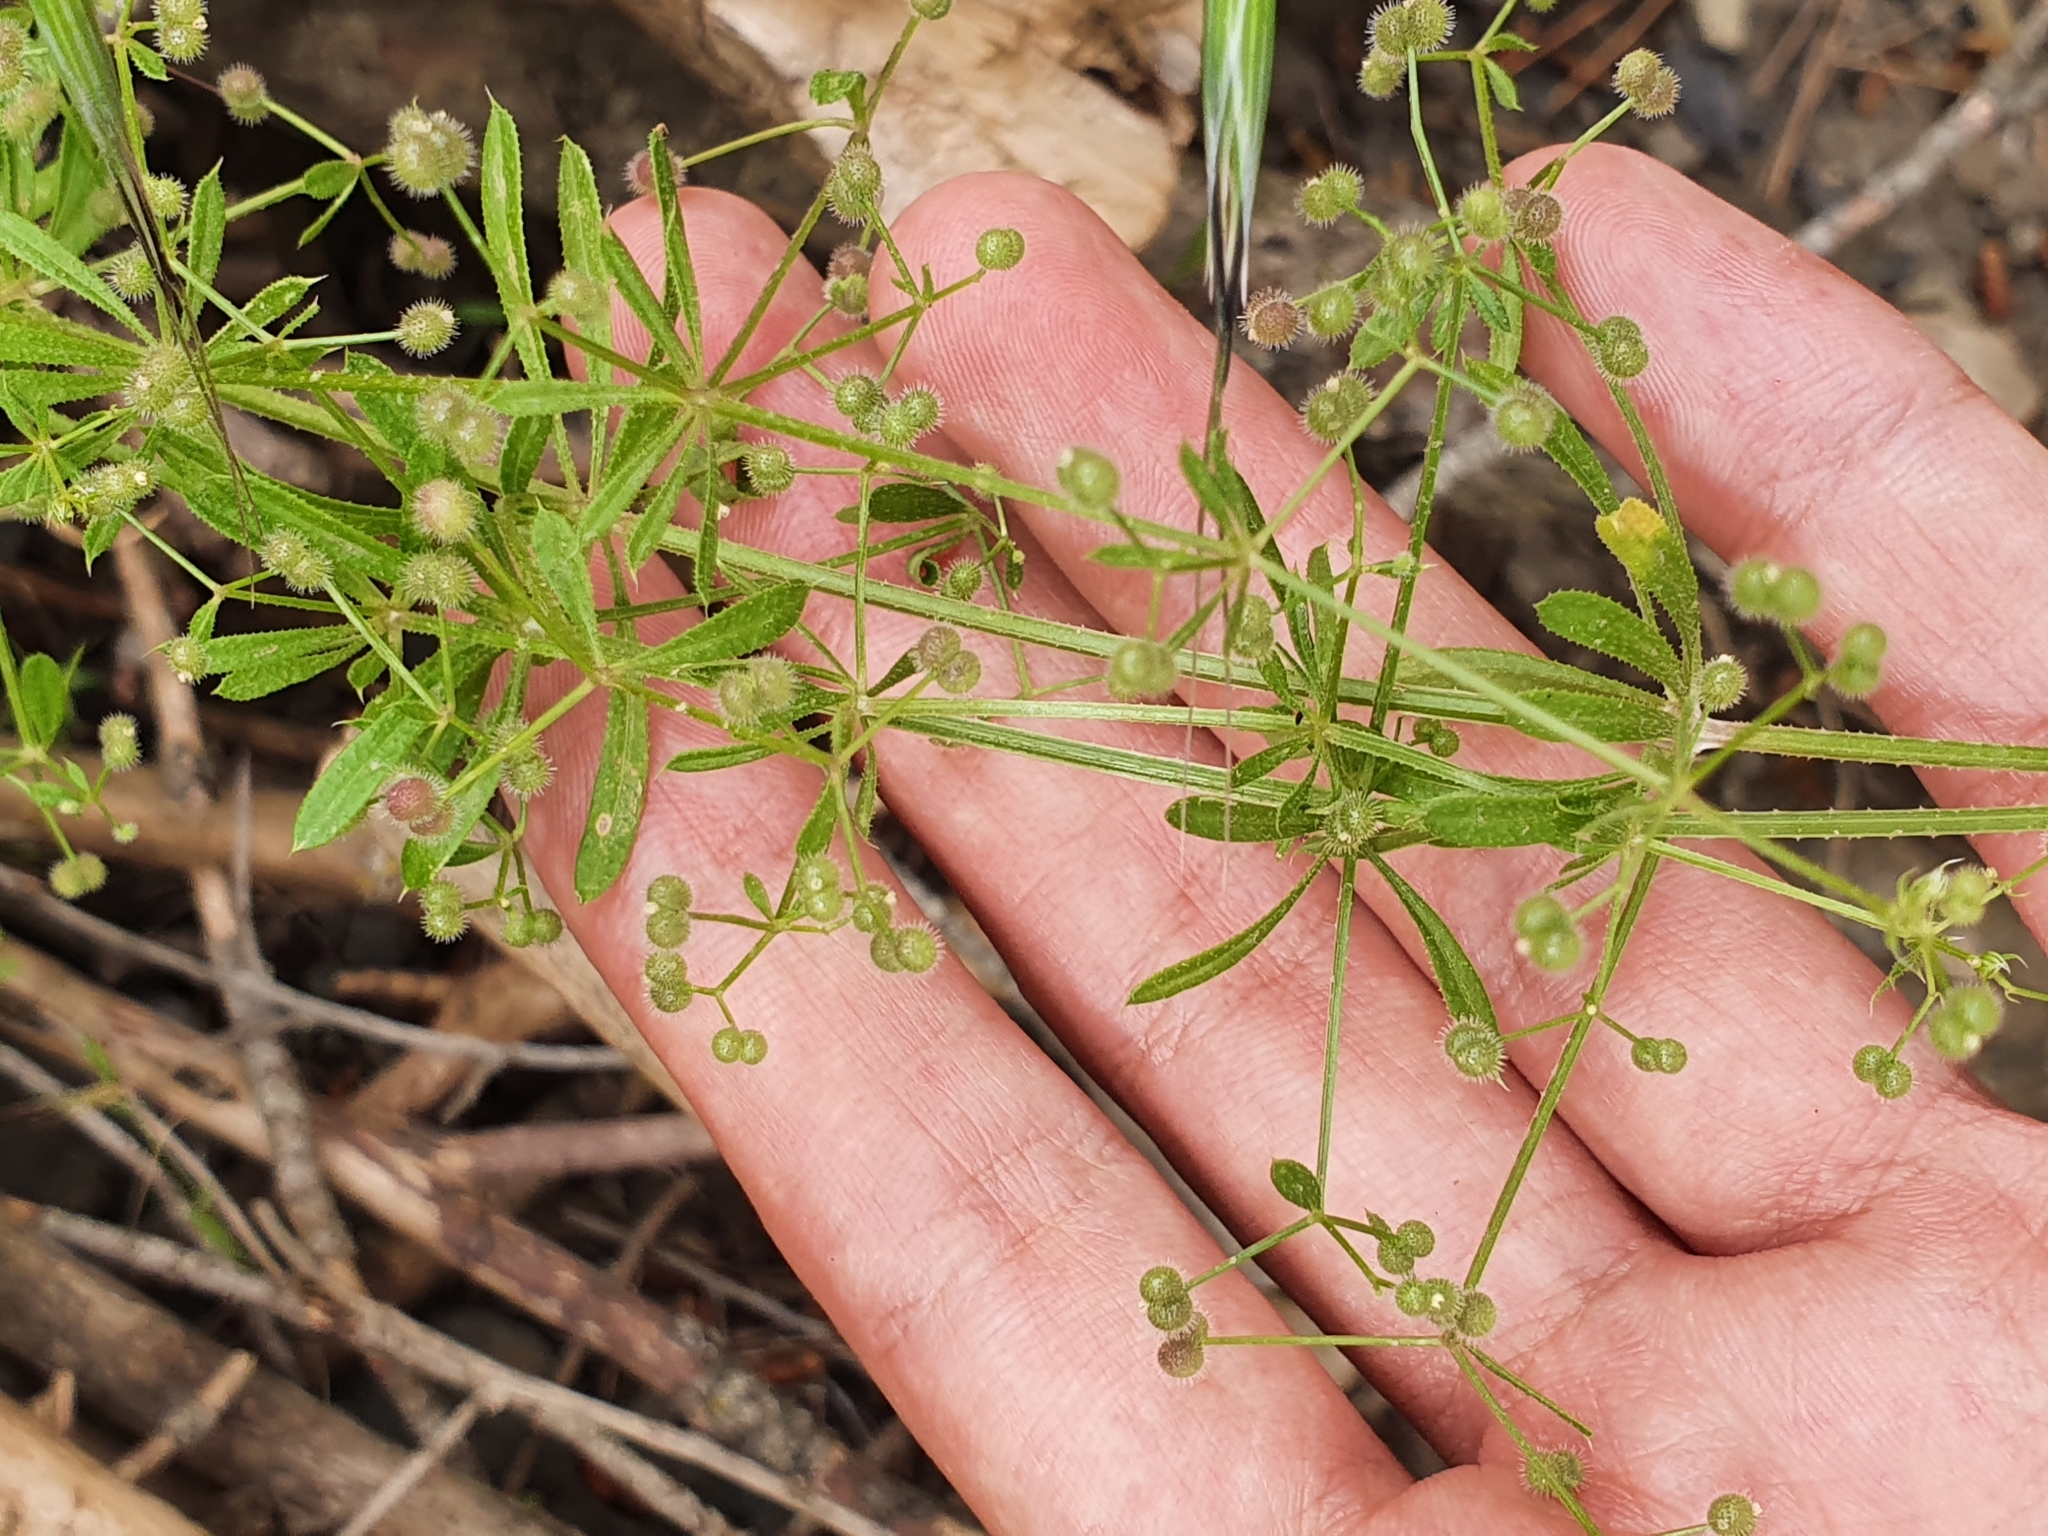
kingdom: Plantae
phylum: Tracheophyta
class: Magnoliopsida
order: Gentianales
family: Rubiaceae
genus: Galium
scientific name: Galium aparine
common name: Cleavers
